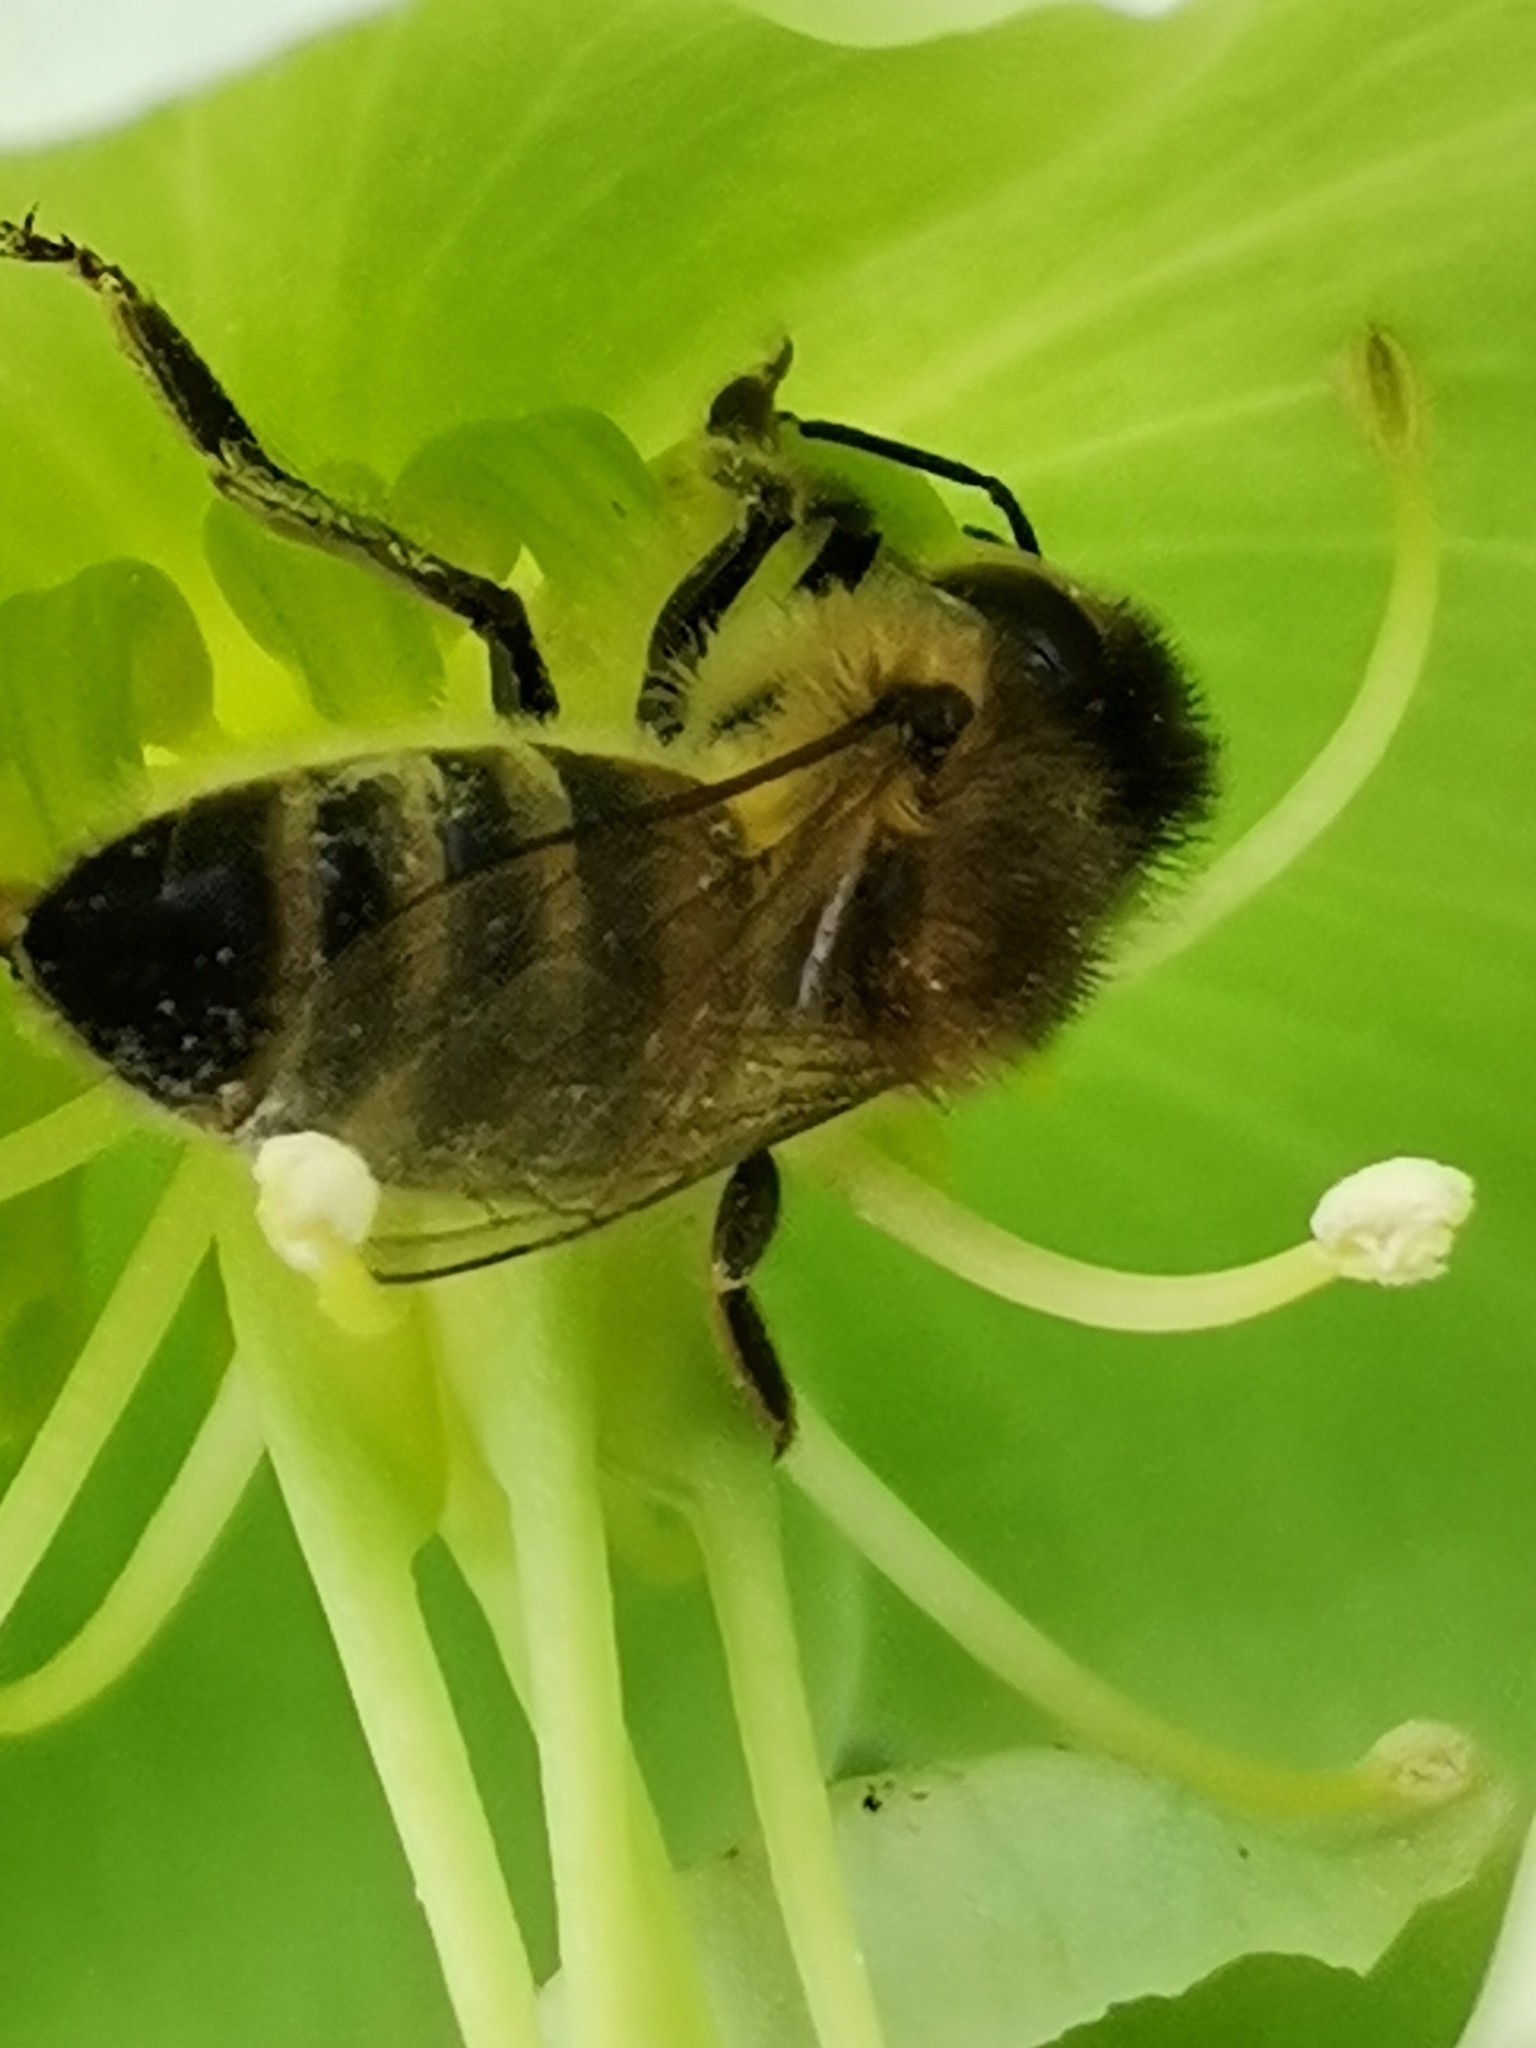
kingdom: Animalia
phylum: Arthropoda
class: Insecta
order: Hymenoptera
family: Apidae
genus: Apis
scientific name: Apis mellifera
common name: Honey bee
